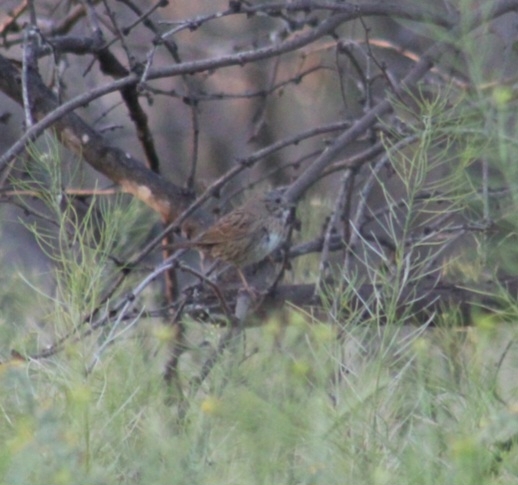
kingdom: Animalia
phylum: Chordata
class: Aves
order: Passeriformes
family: Passerellidae
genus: Melospiza
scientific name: Melospiza lincolnii
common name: Lincoln's sparrow
